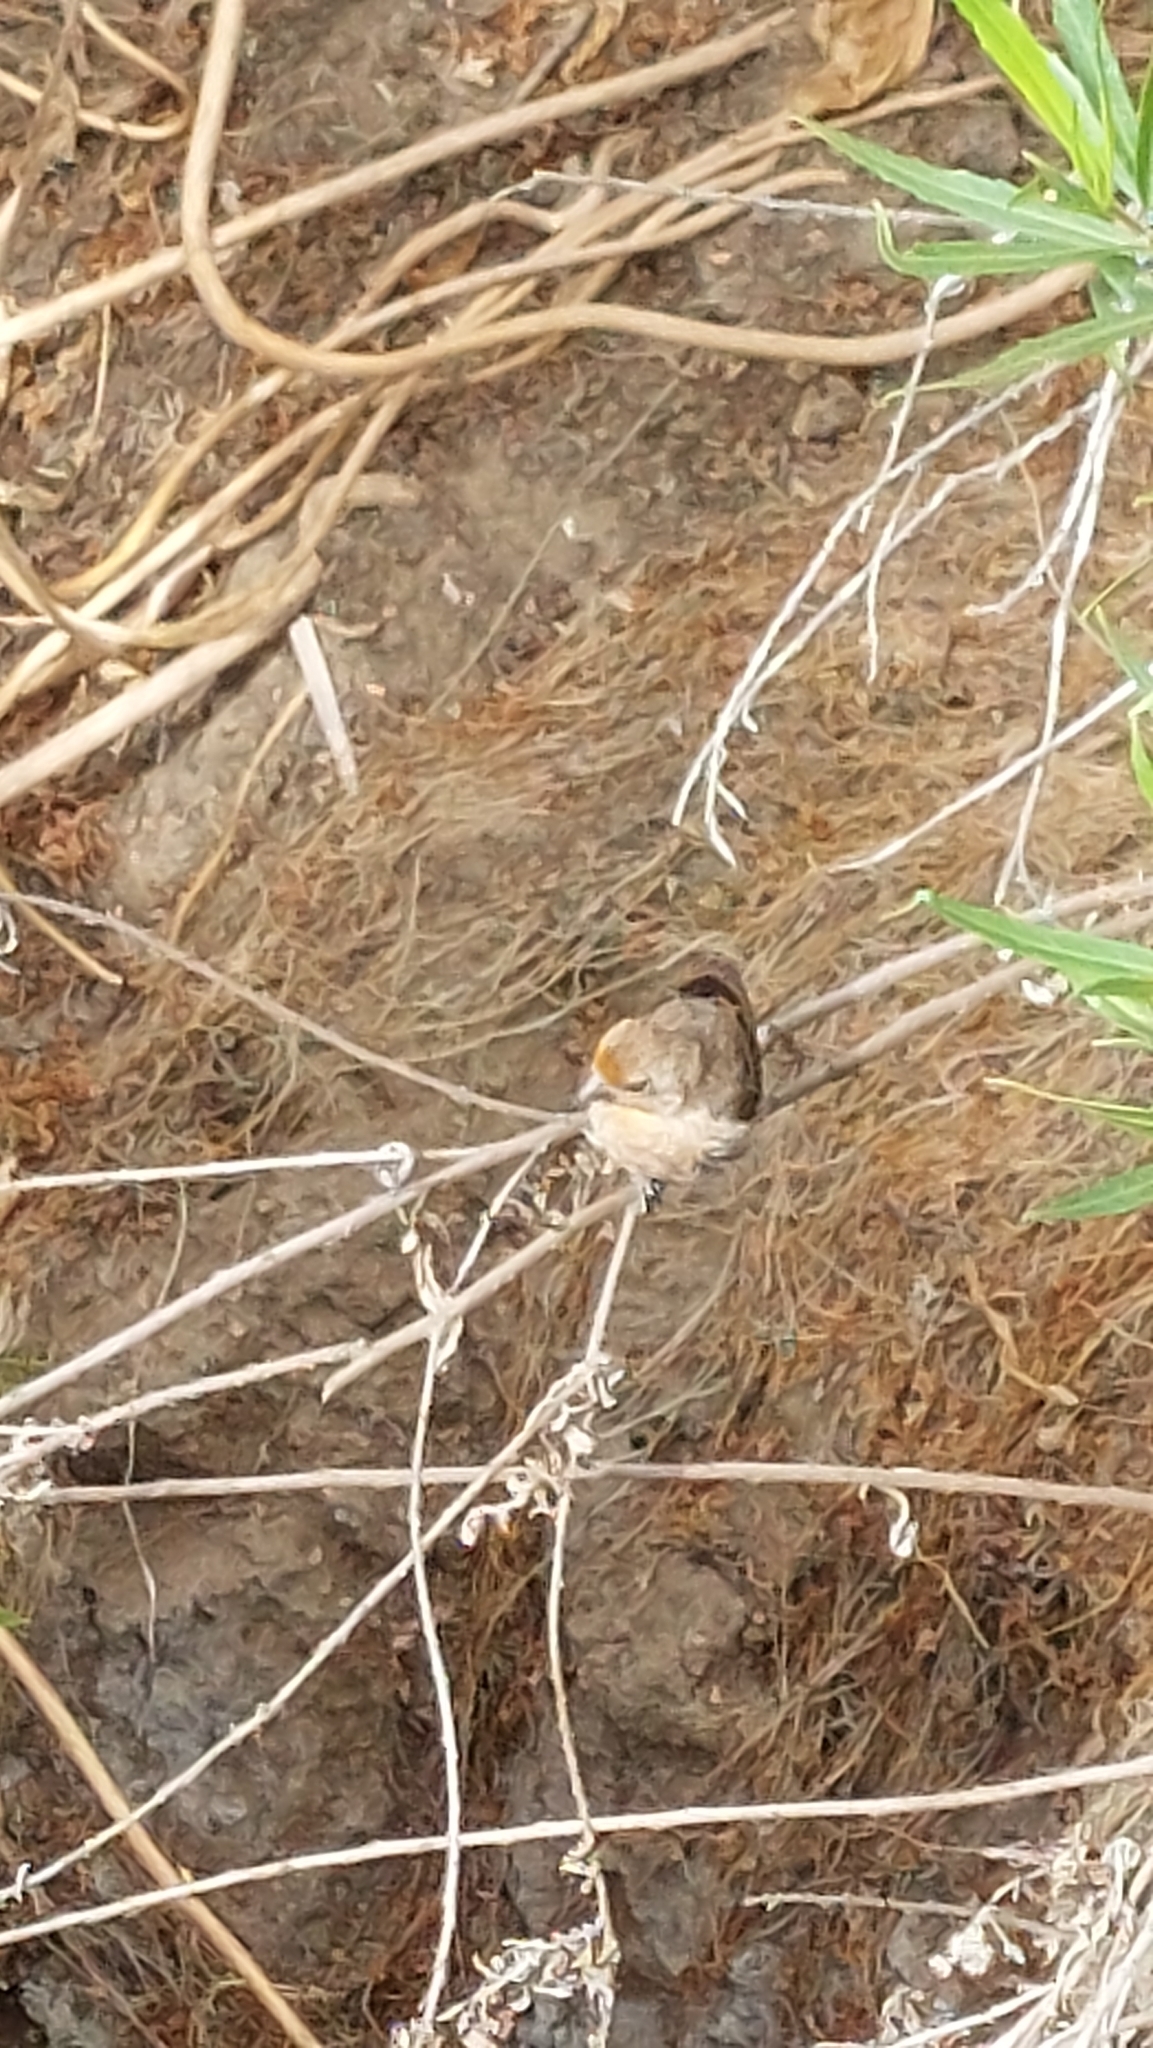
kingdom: Animalia
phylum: Chordata
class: Aves
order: Passeriformes
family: Fringillidae
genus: Haemorhous
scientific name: Haemorhous mexicanus
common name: House finch
